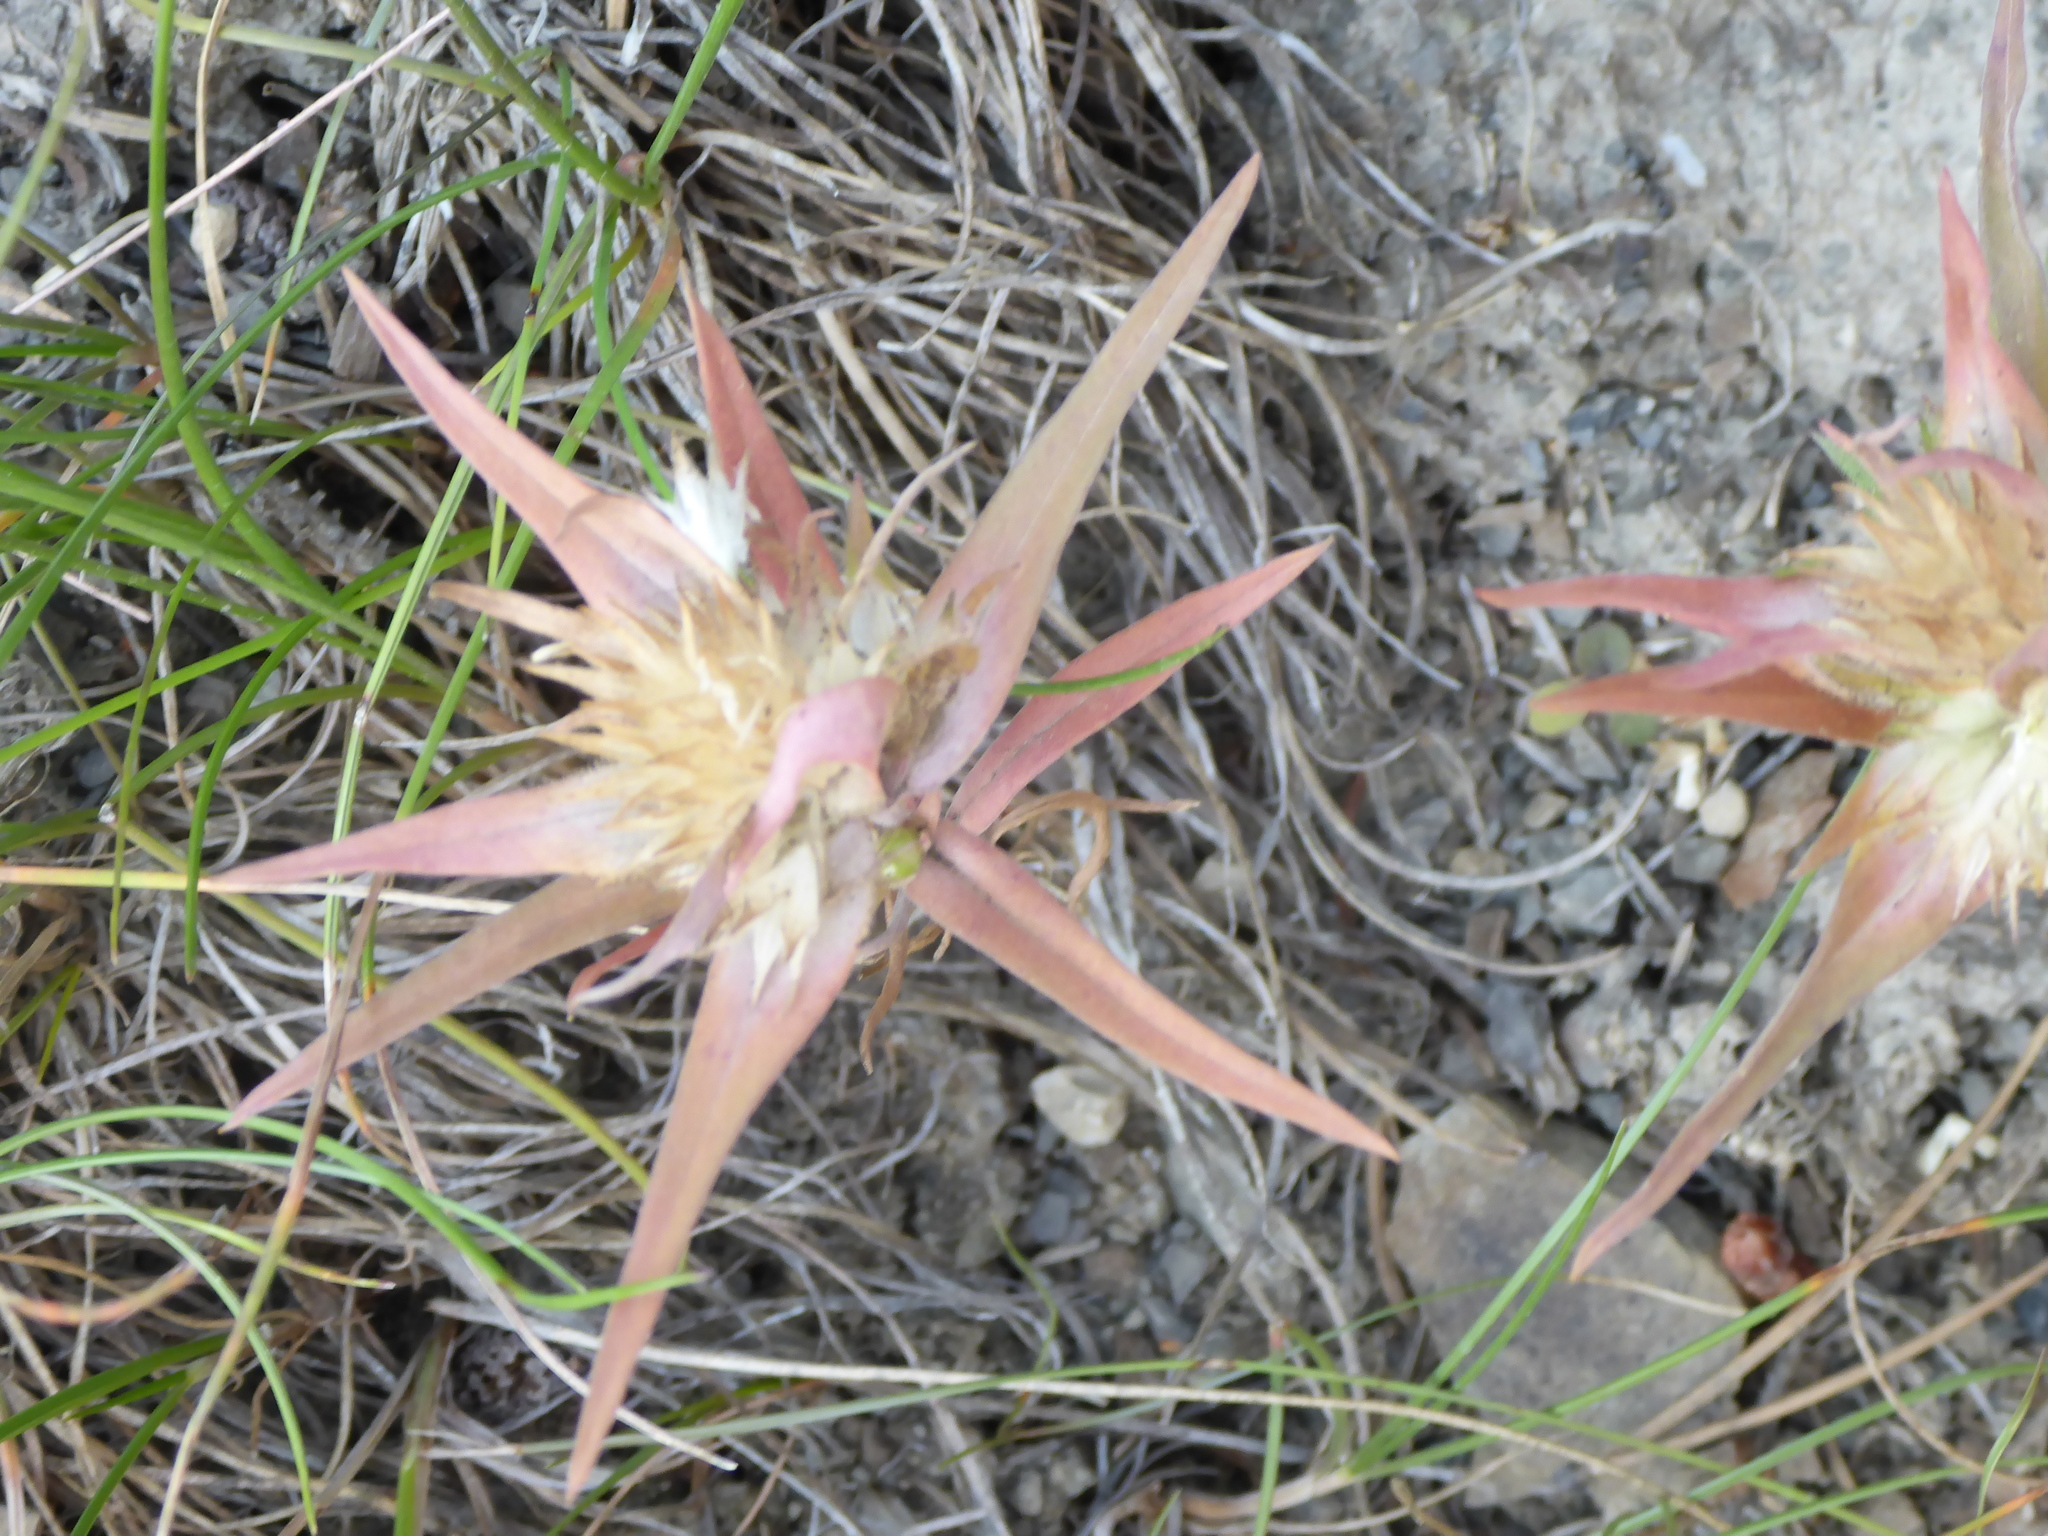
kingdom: Plantae
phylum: Tracheophyta
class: Magnoliopsida
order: Ericales
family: Polemoniaceae
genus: Collomia
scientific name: Collomia linearis
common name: Tiny trumpet
